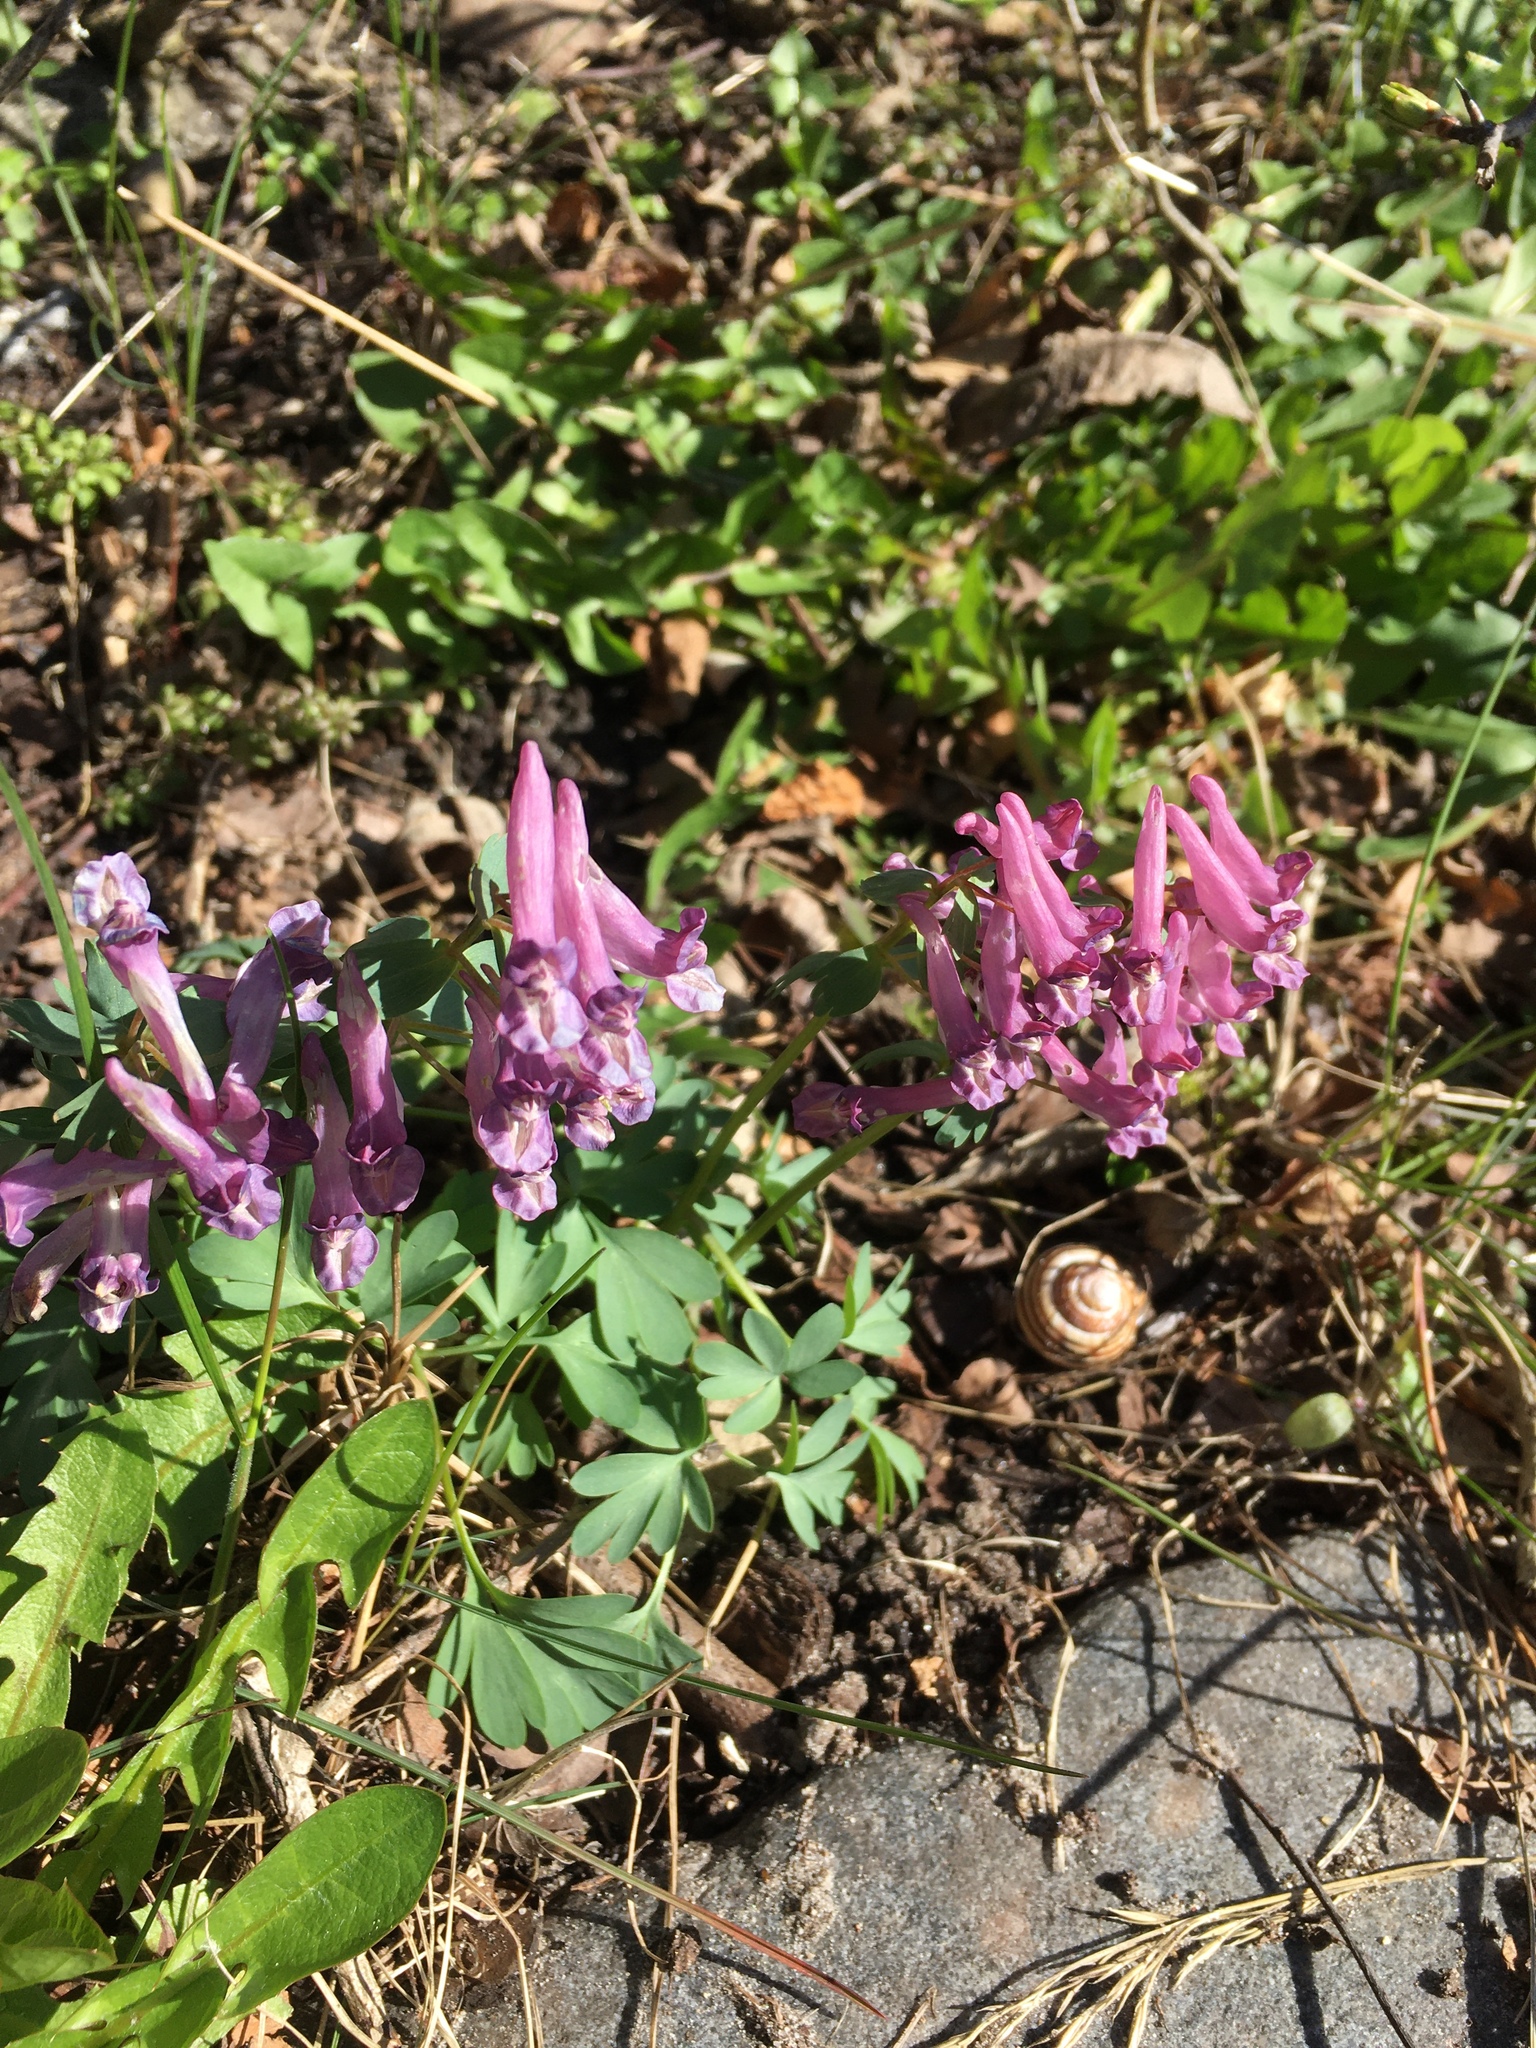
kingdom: Plantae
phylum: Tracheophyta
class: Magnoliopsida
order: Ranunculales
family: Papaveraceae
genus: Corydalis
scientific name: Corydalis solida
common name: Bird-in-a-bush
